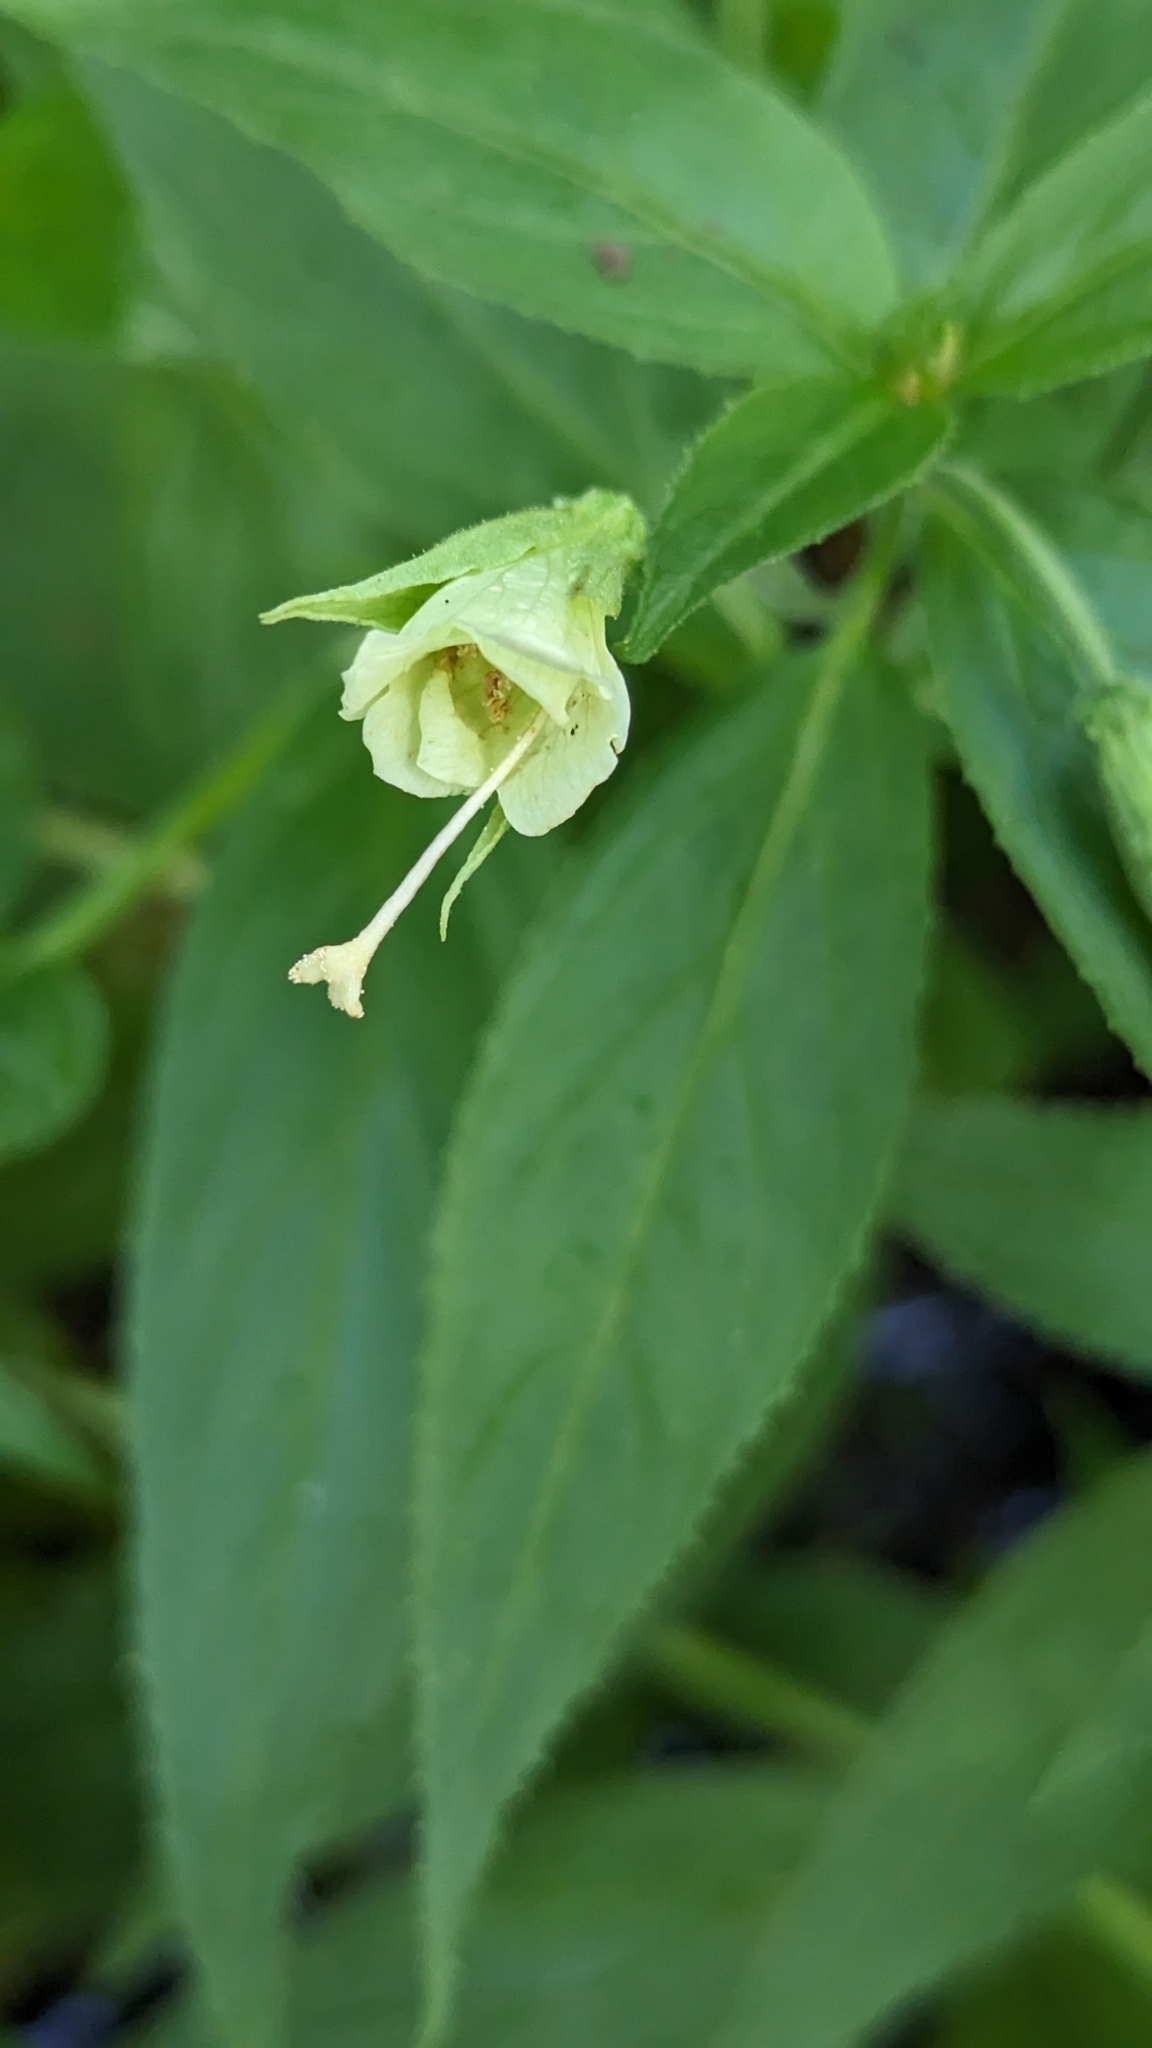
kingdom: Plantae
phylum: Tracheophyta
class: Magnoliopsida
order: Myrtales
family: Onagraceae
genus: Epilobium
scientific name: Epilobium luteum
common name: Yellow willowherb
